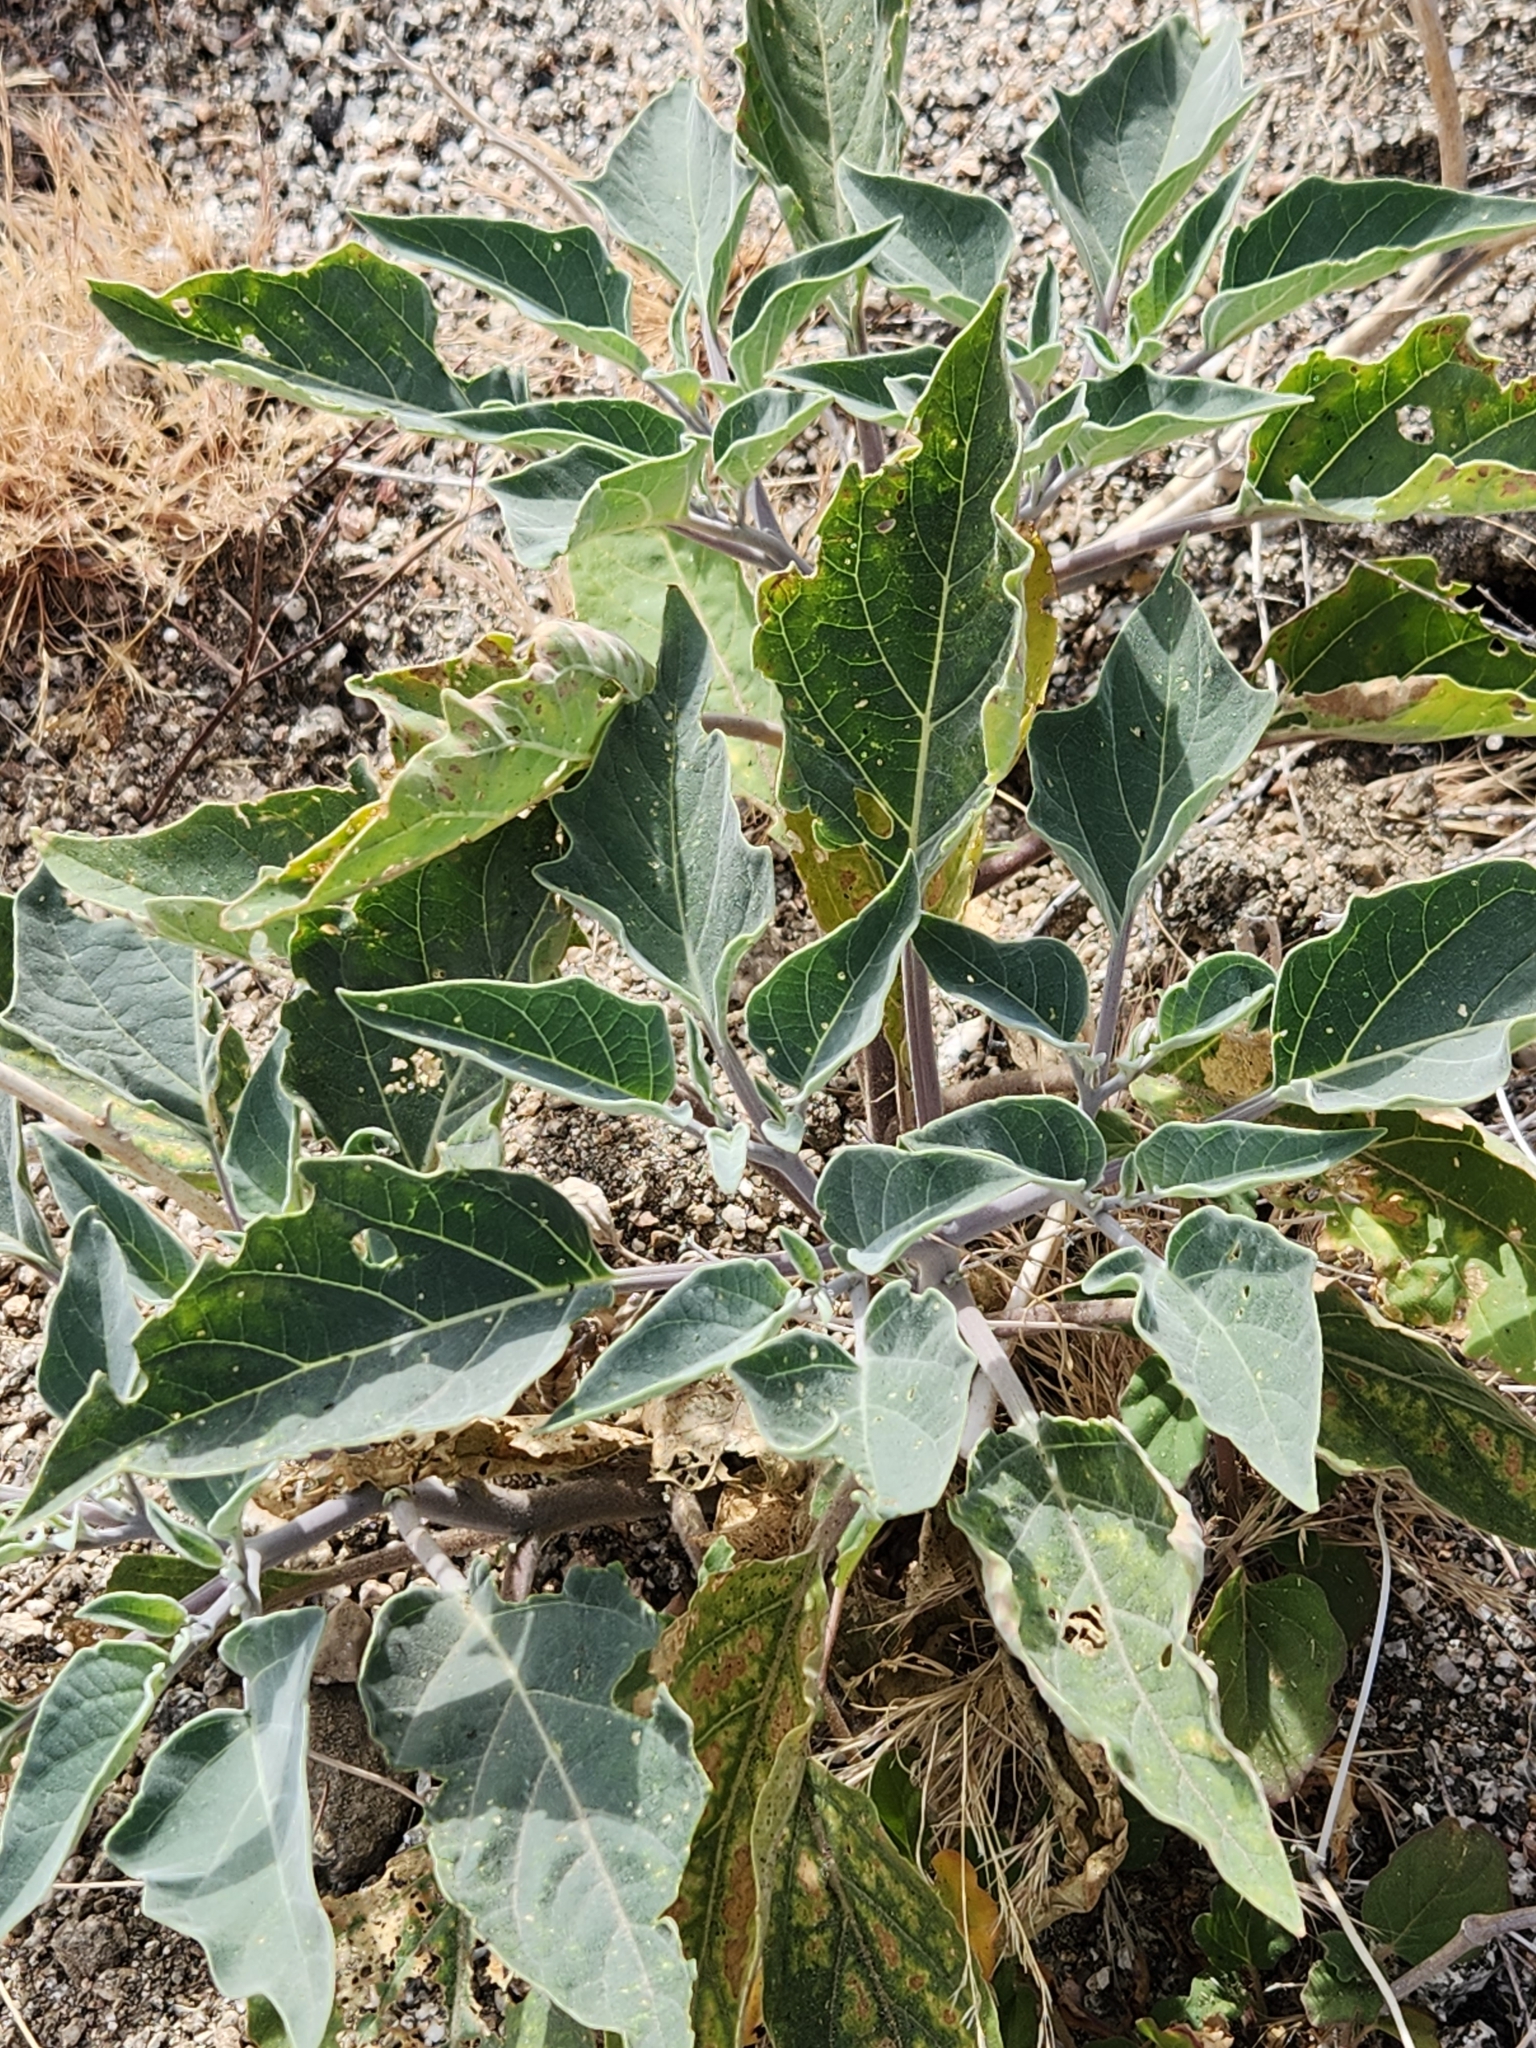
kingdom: Plantae
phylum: Tracheophyta
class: Magnoliopsida
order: Solanales
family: Solanaceae
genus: Datura
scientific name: Datura wrightii
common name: Sacred thorn-apple
